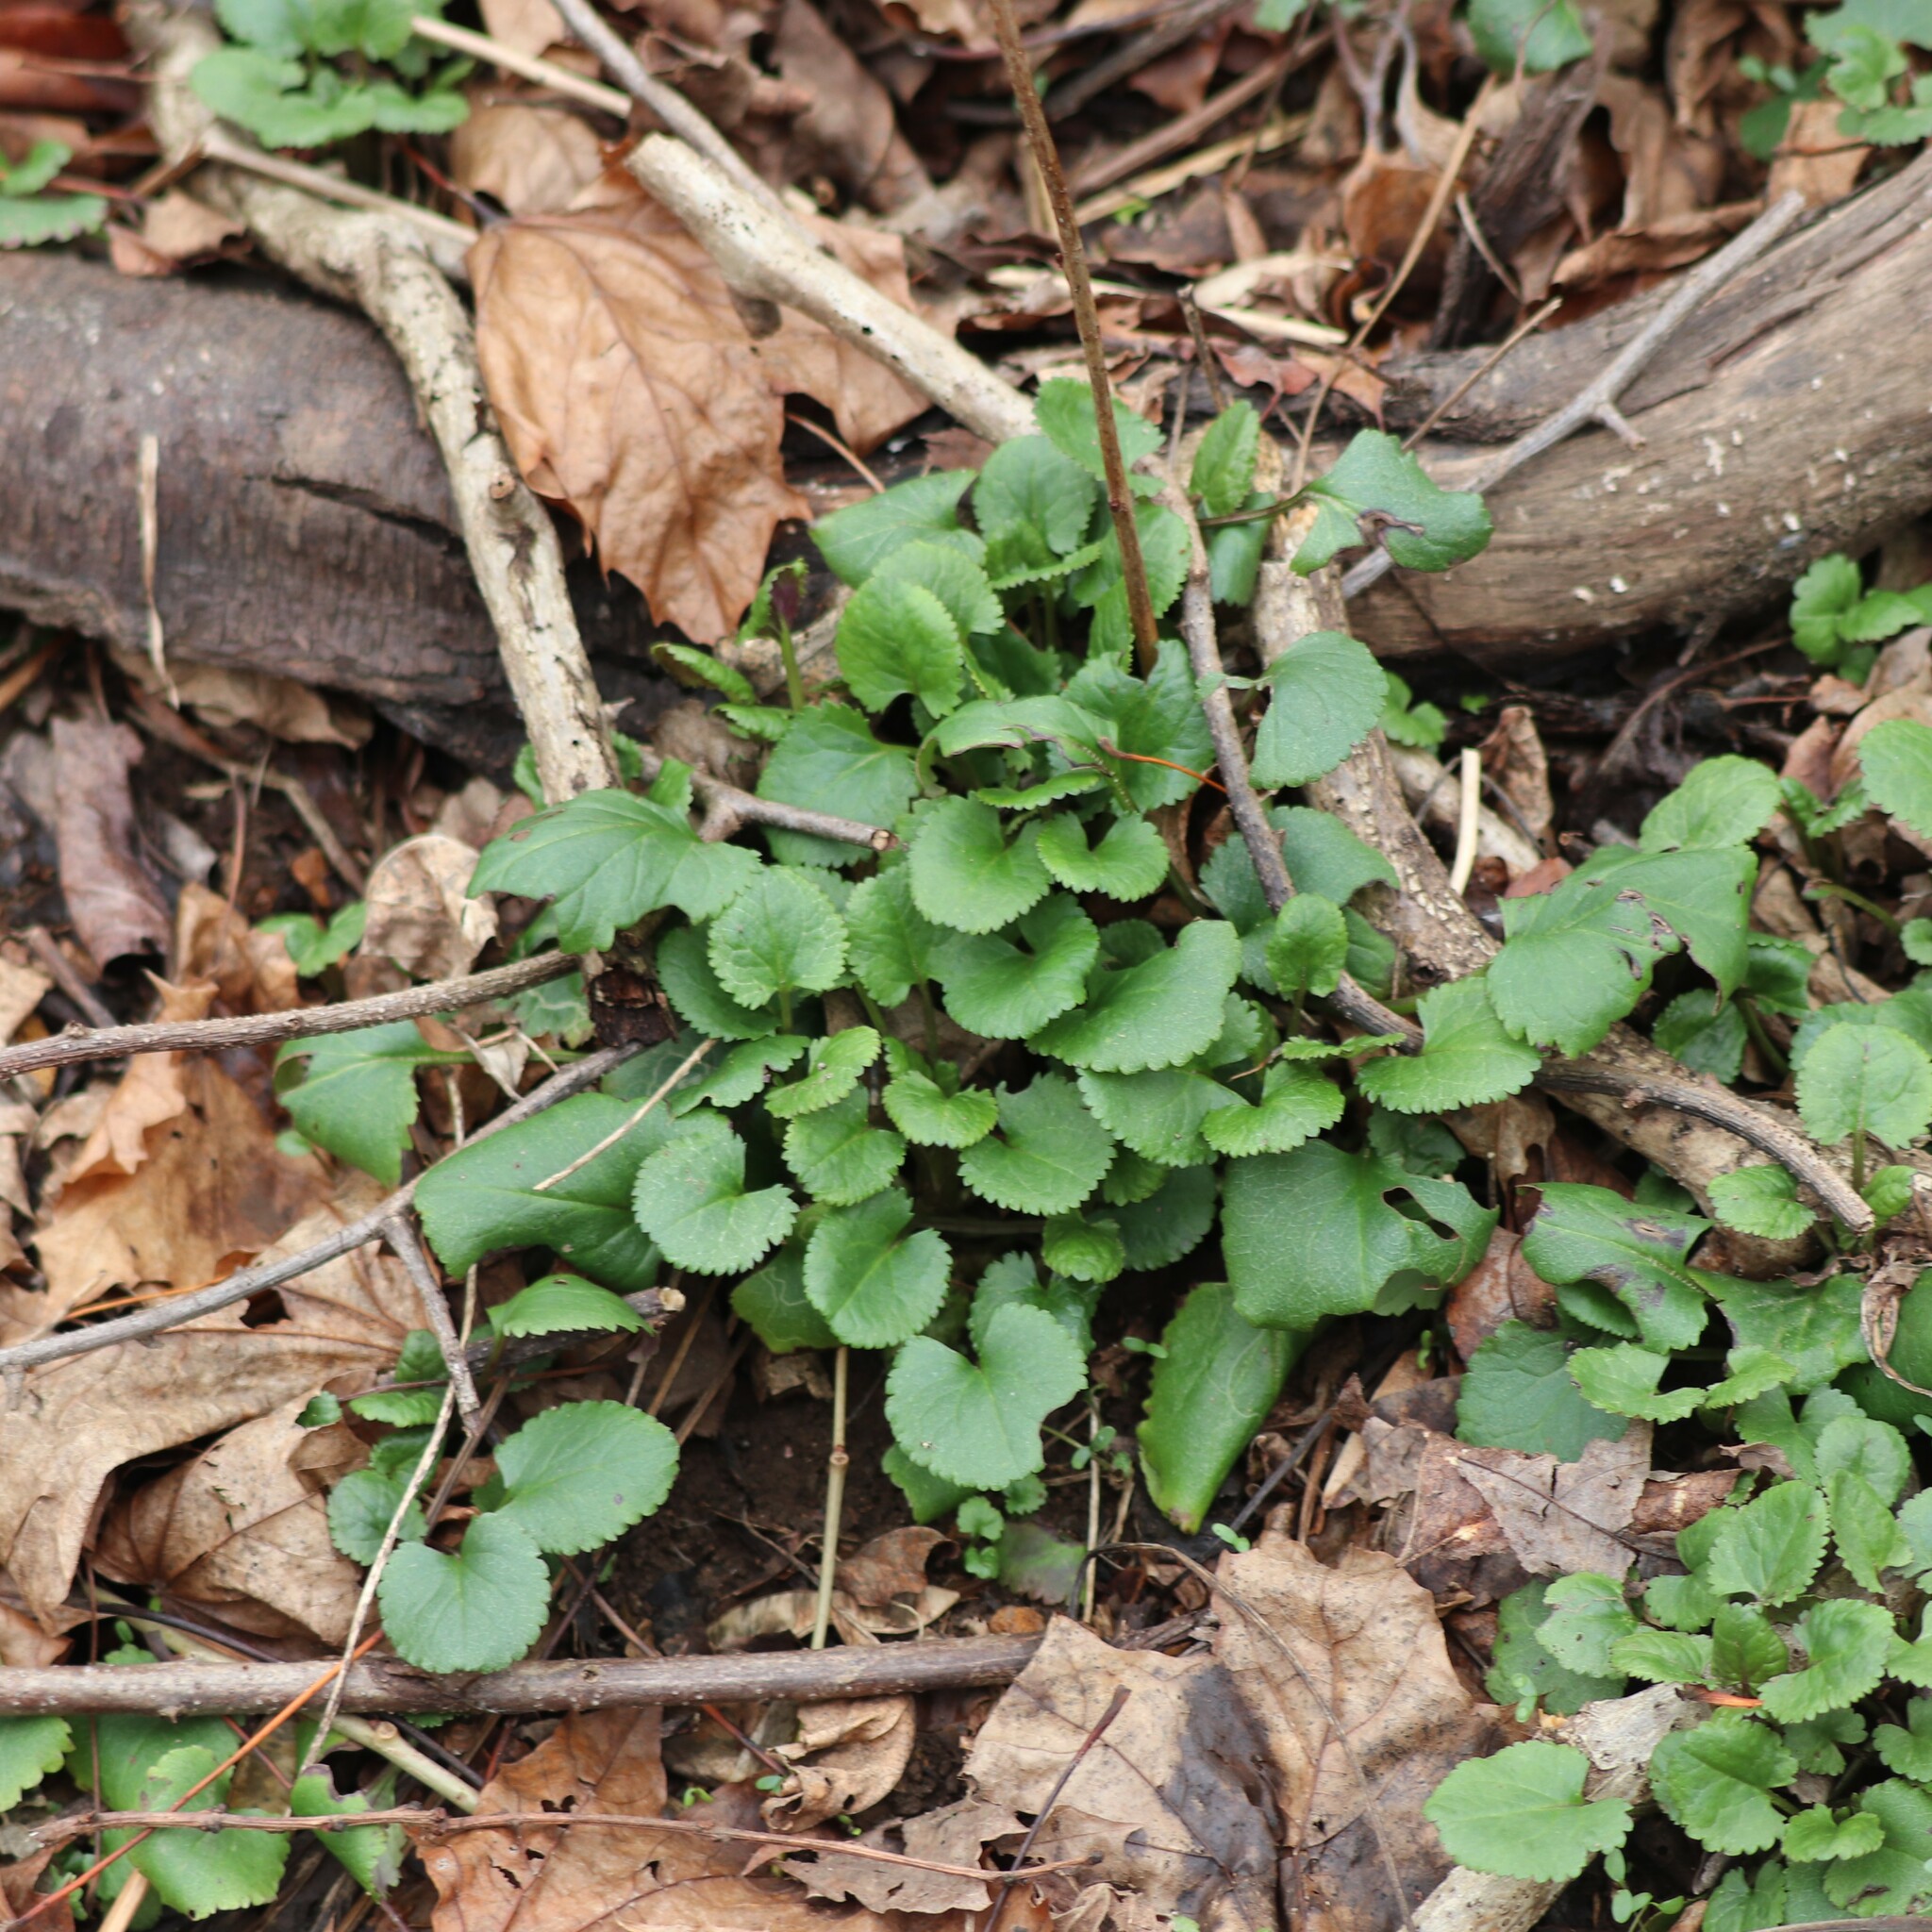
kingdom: Plantae
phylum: Tracheophyta
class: Magnoliopsida
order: Asterales
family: Asteraceae
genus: Packera
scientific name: Packera aurea
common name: Golden groundsel
